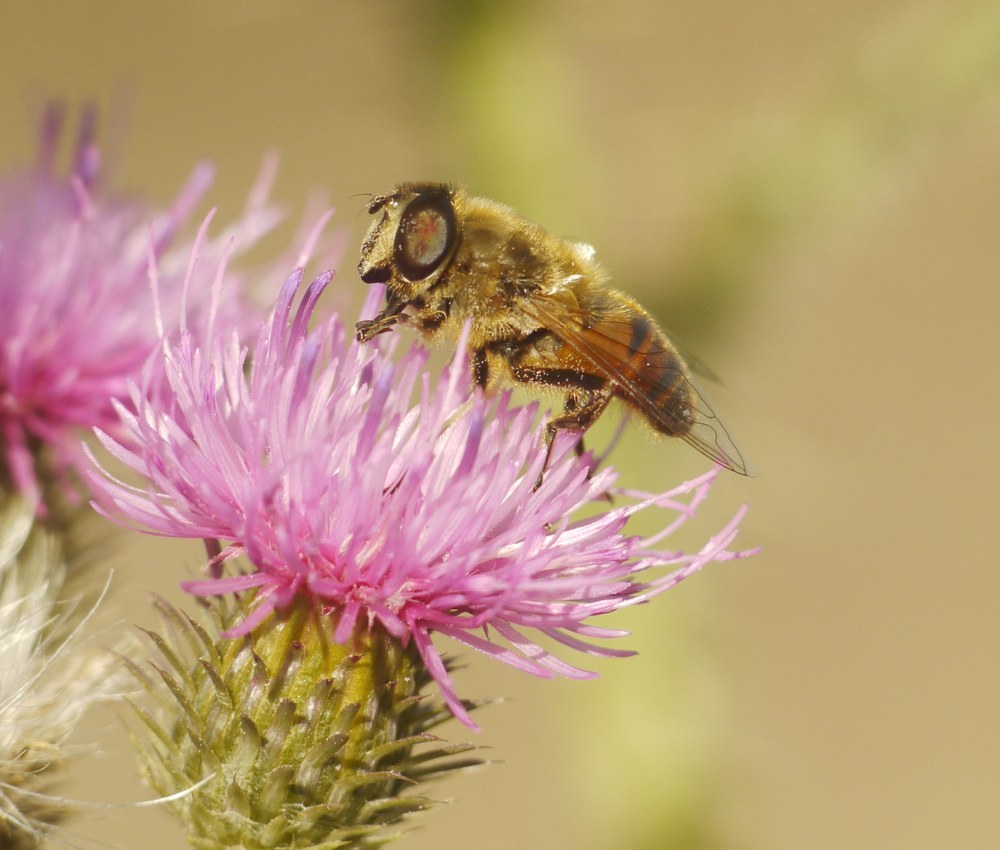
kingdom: Animalia
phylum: Arthropoda
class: Insecta
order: Diptera
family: Syrphidae
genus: Eristalis
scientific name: Eristalis tenax
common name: Drone fly
